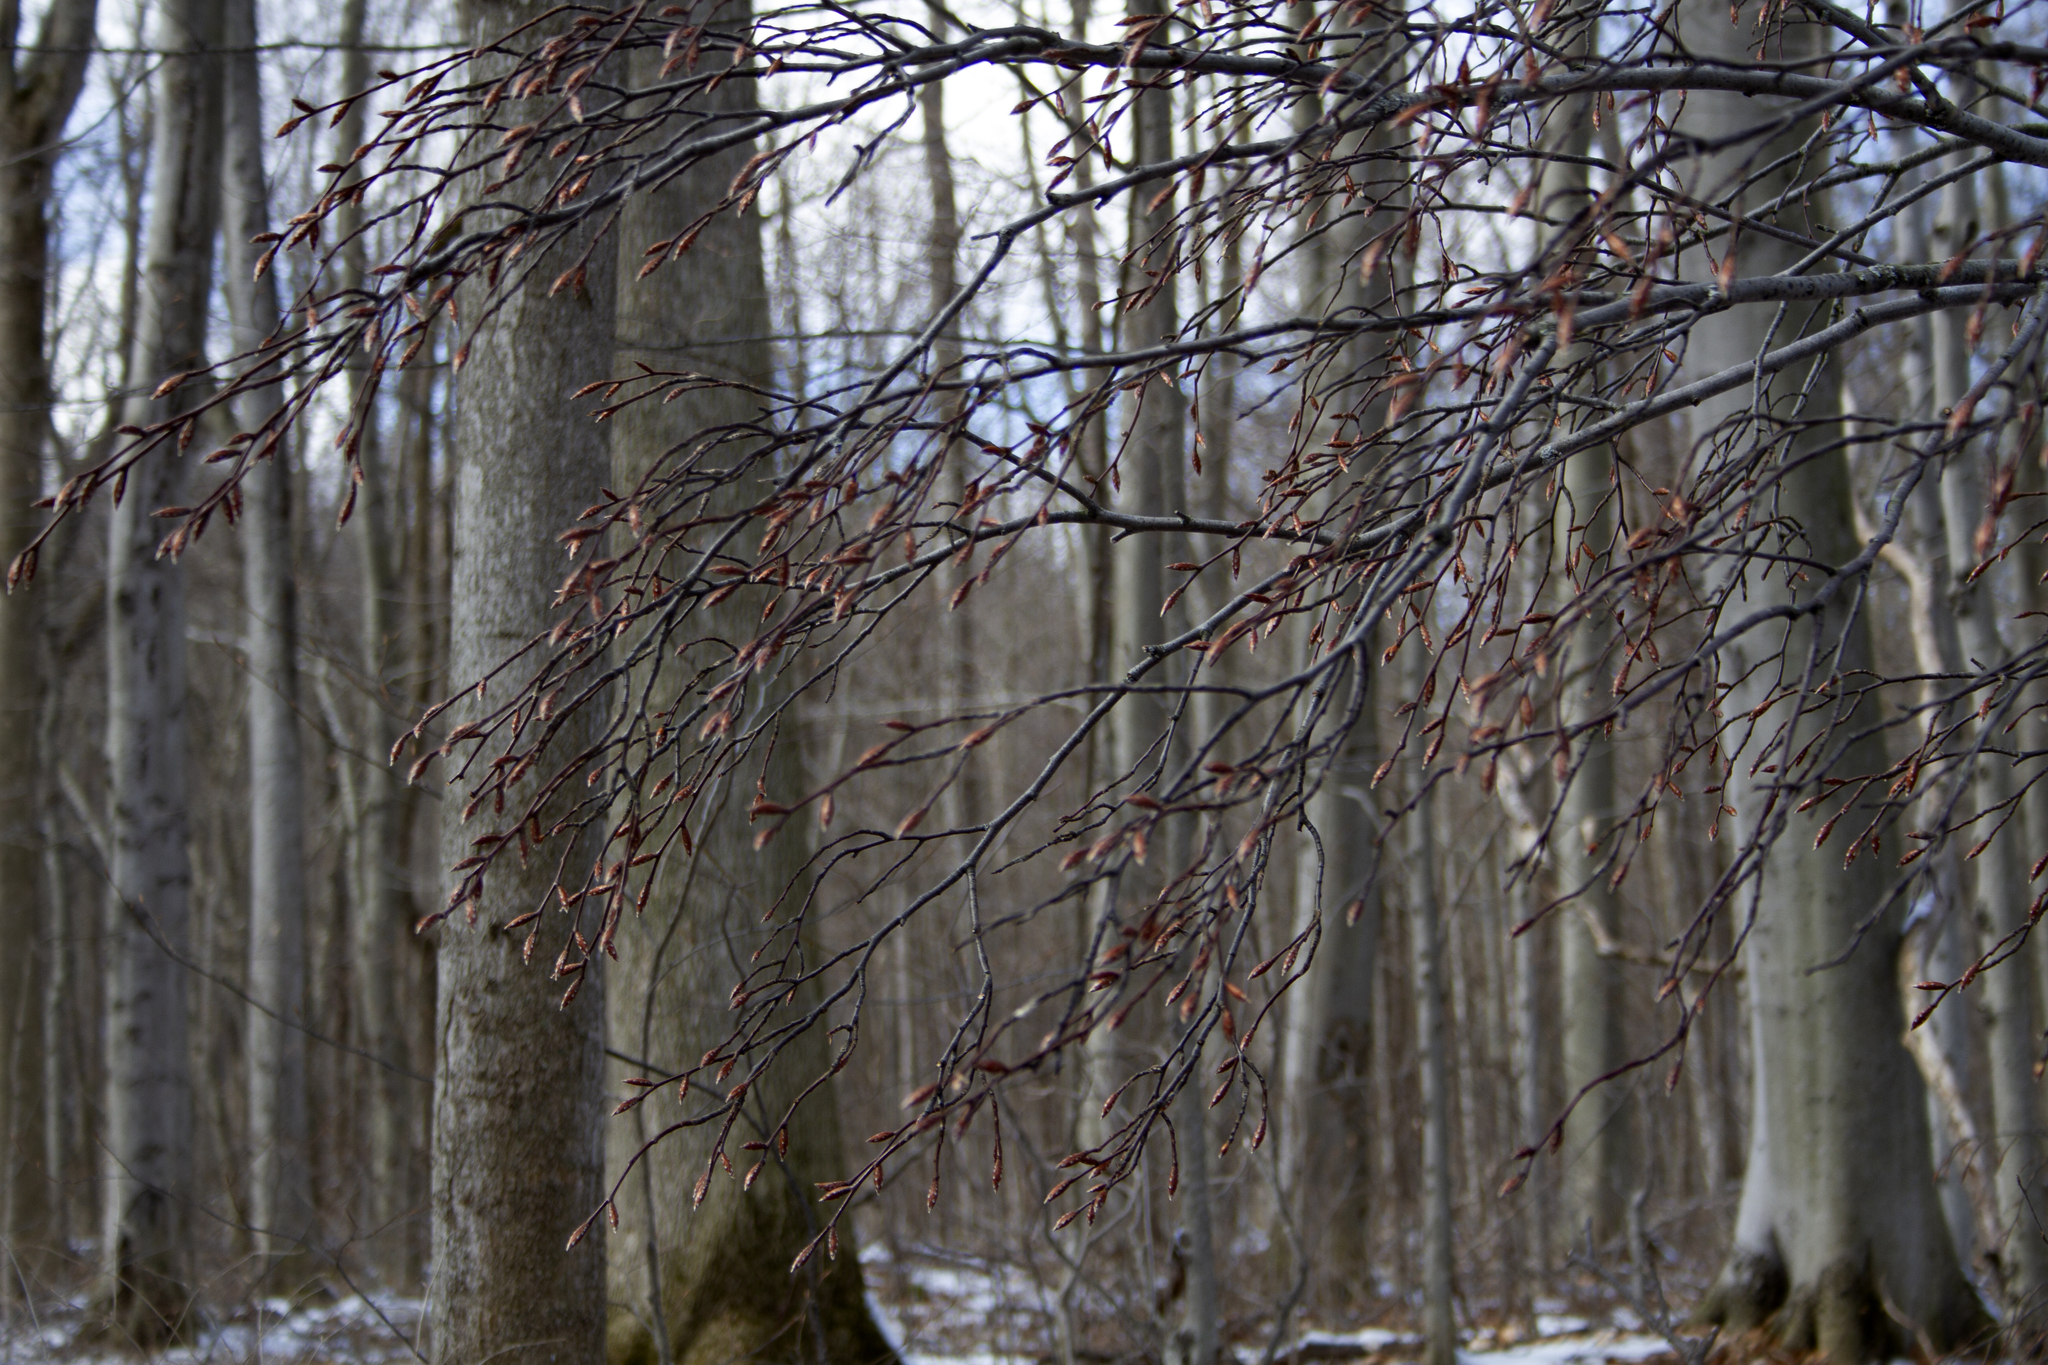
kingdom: Plantae
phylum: Tracheophyta
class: Magnoliopsida
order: Fagales
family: Fagaceae
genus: Fagus
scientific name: Fagus grandifolia
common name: American beech
